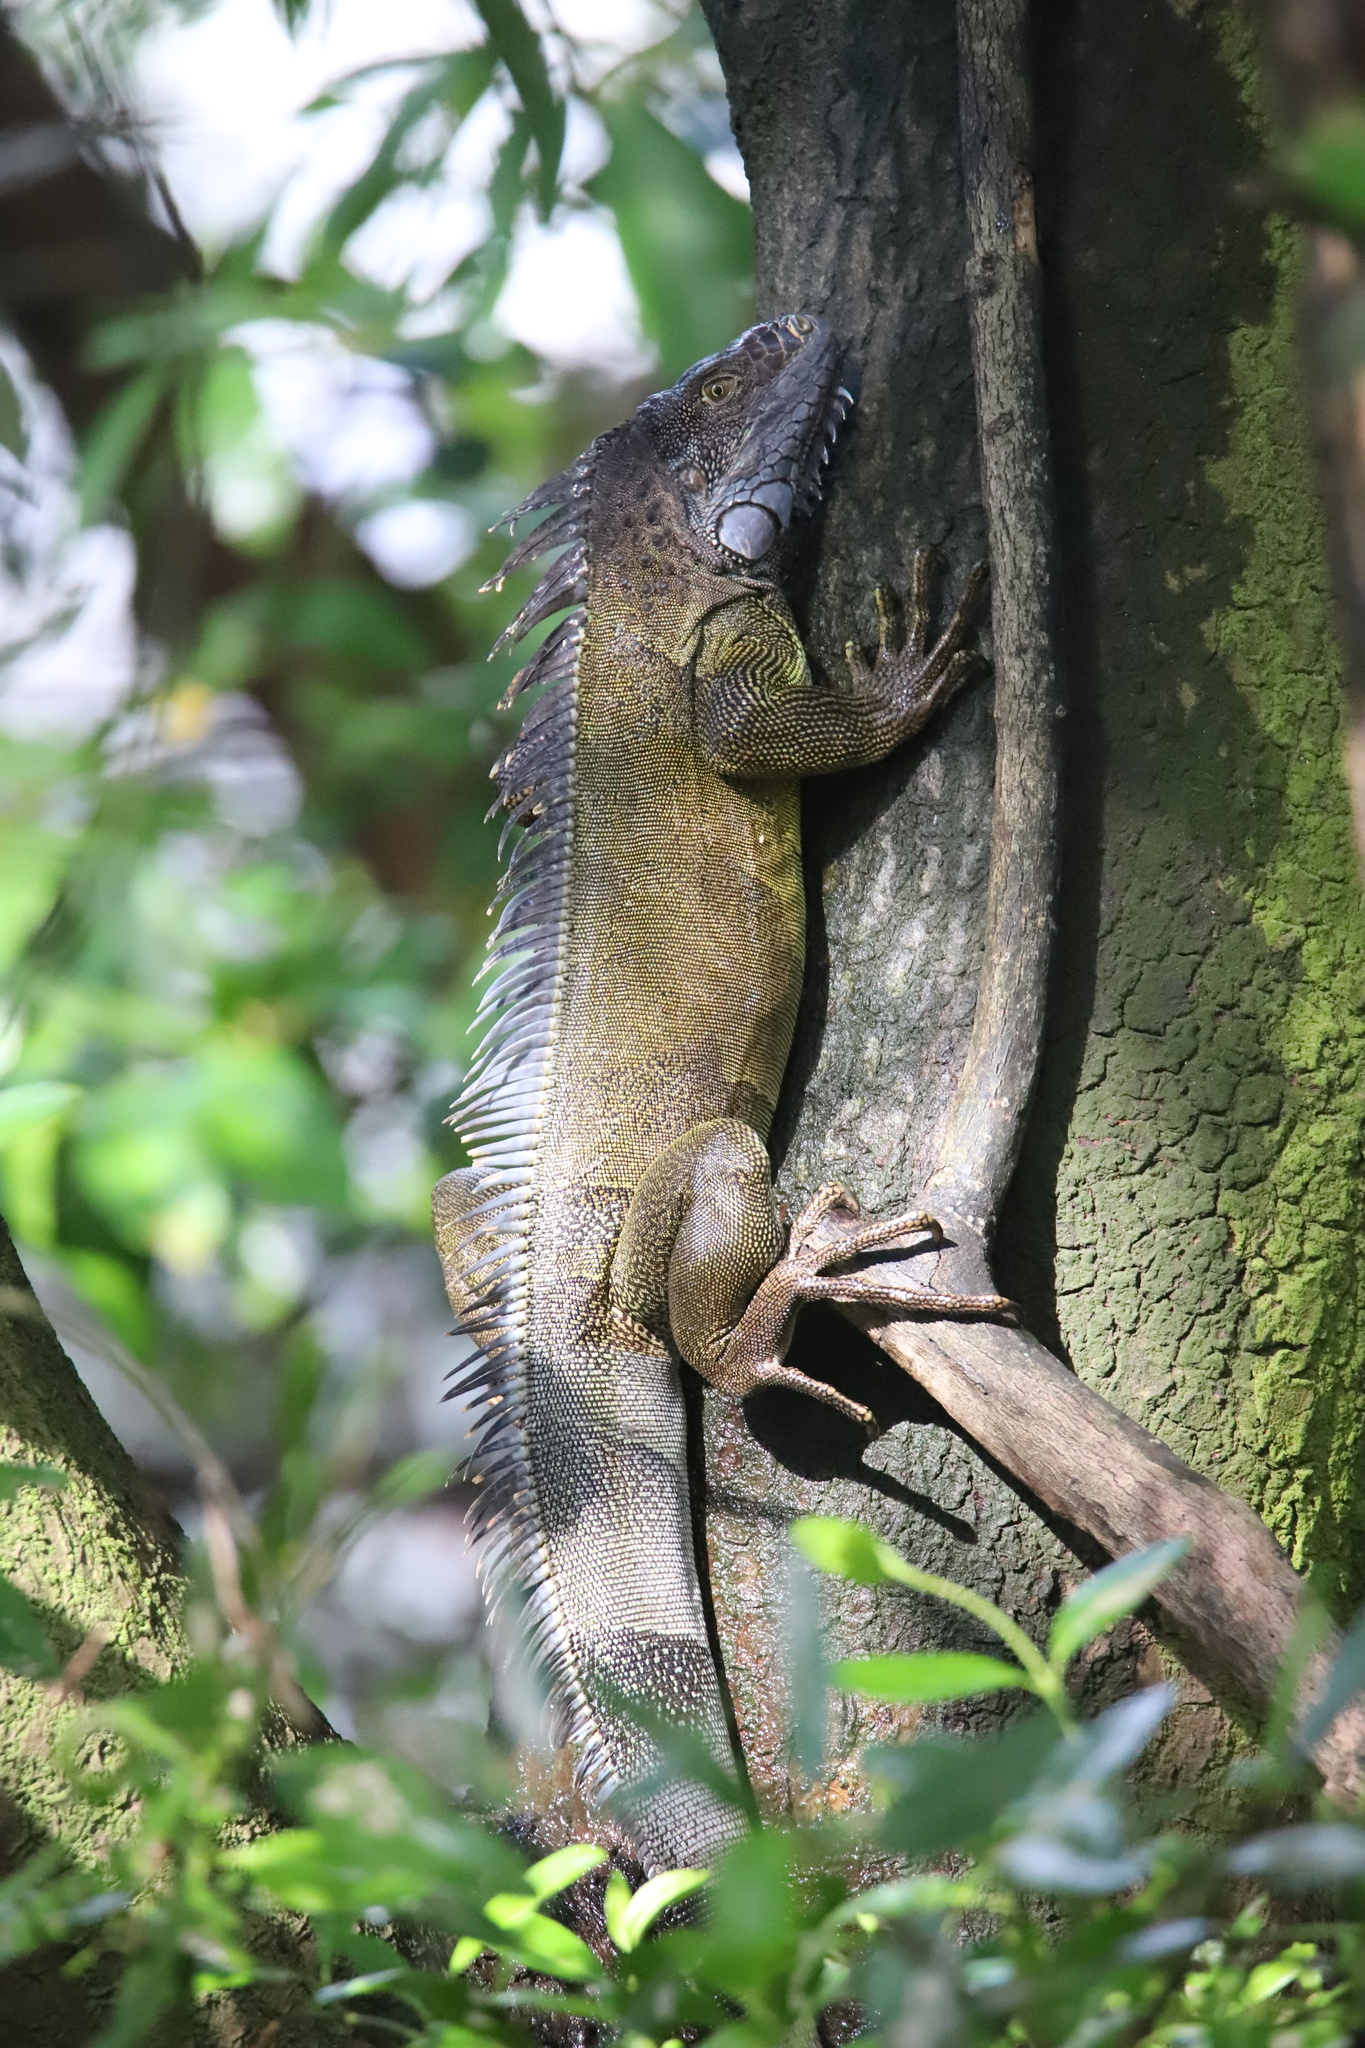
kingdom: Animalia
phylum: Chordata
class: Squamata
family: Iguanidae
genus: Iguana
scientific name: Iguana iguana
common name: Green iguana
